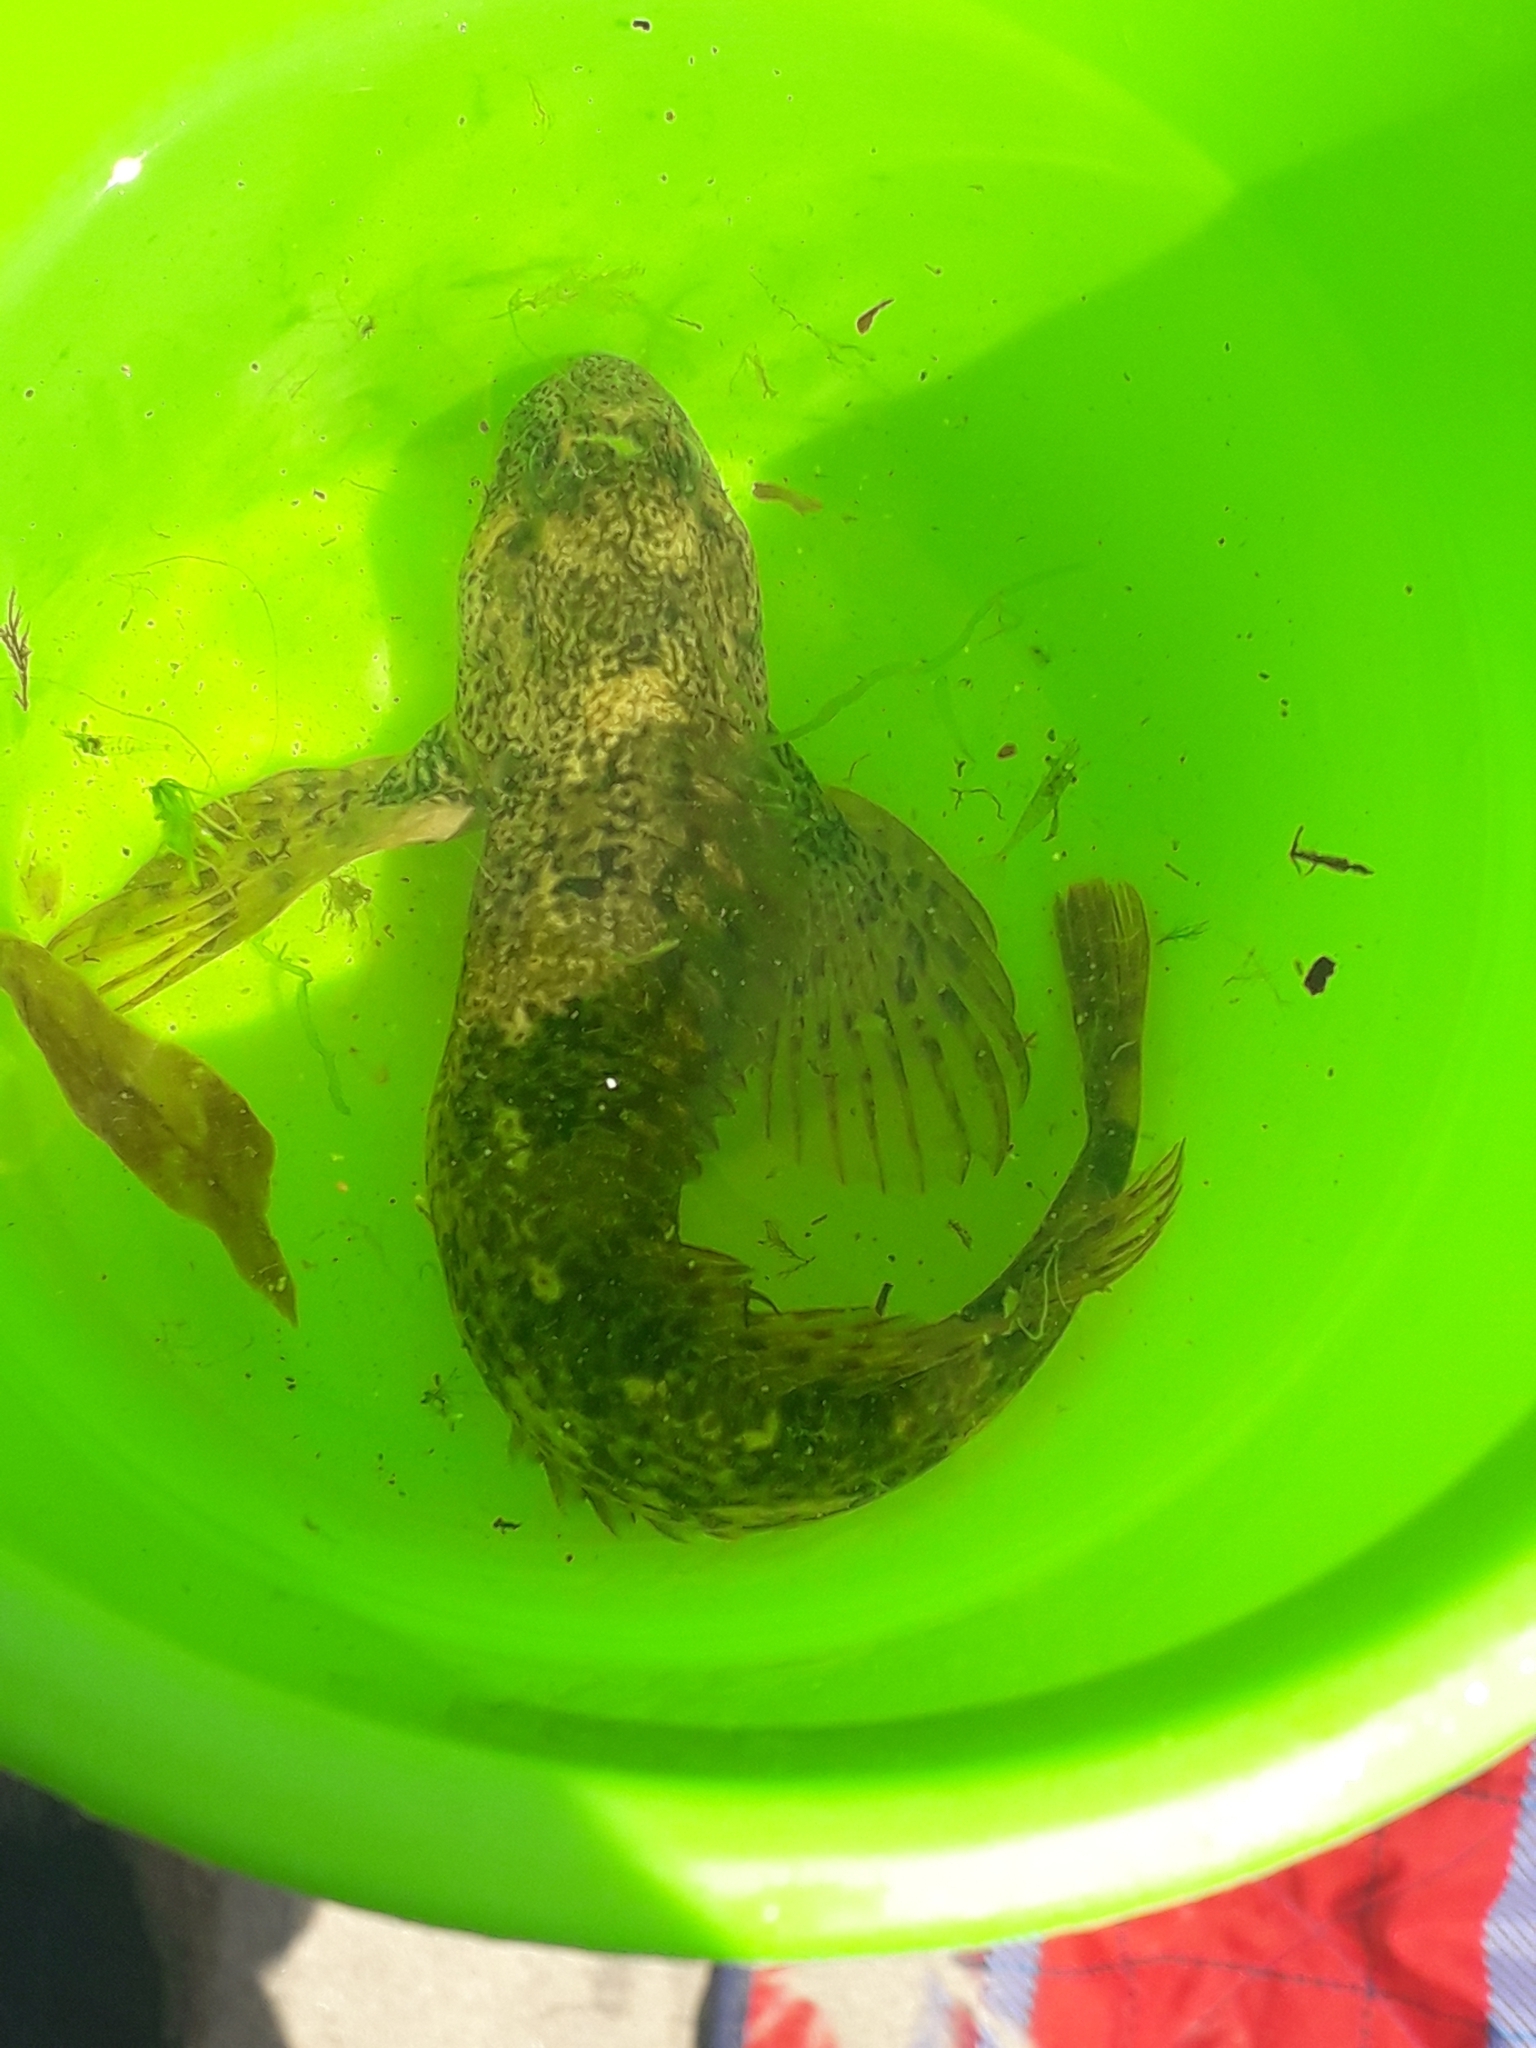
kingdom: Animalia
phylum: Chordata
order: Perciformes
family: Blenniidae
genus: Lipophrys
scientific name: Lipophrys pholis
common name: Shanny
